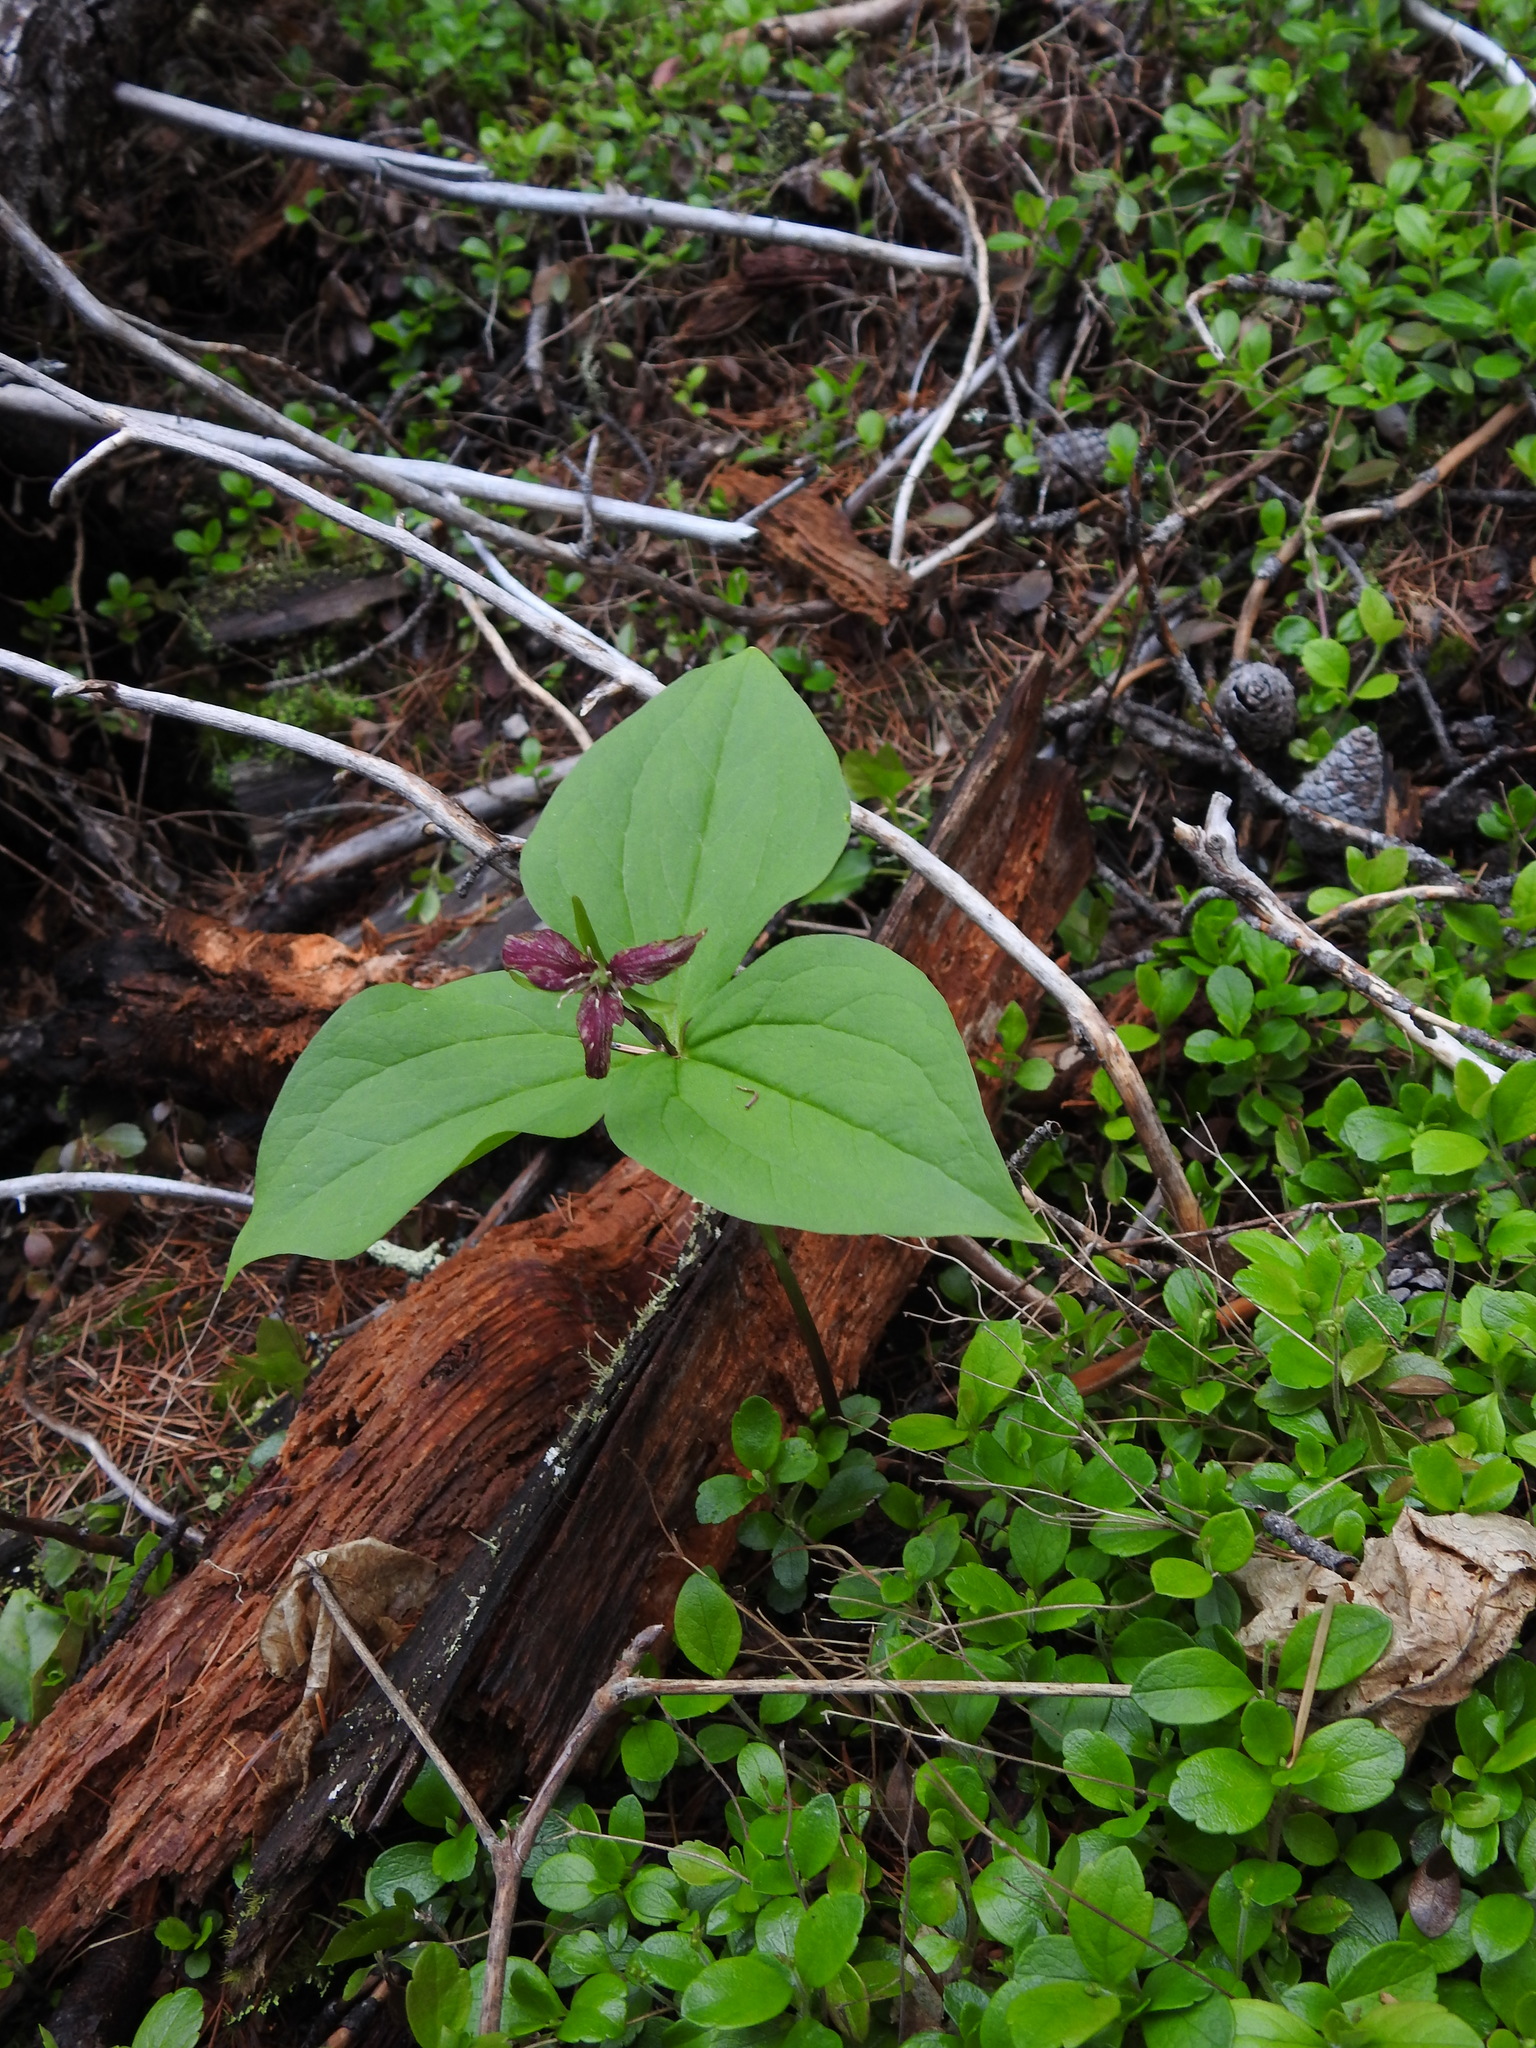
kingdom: Plantae
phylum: Tracheophyta
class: Liliopsida
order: Liliales
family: Melanthiaceae
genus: Trillium
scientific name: Trillium ovatum
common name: Pacific trillium
